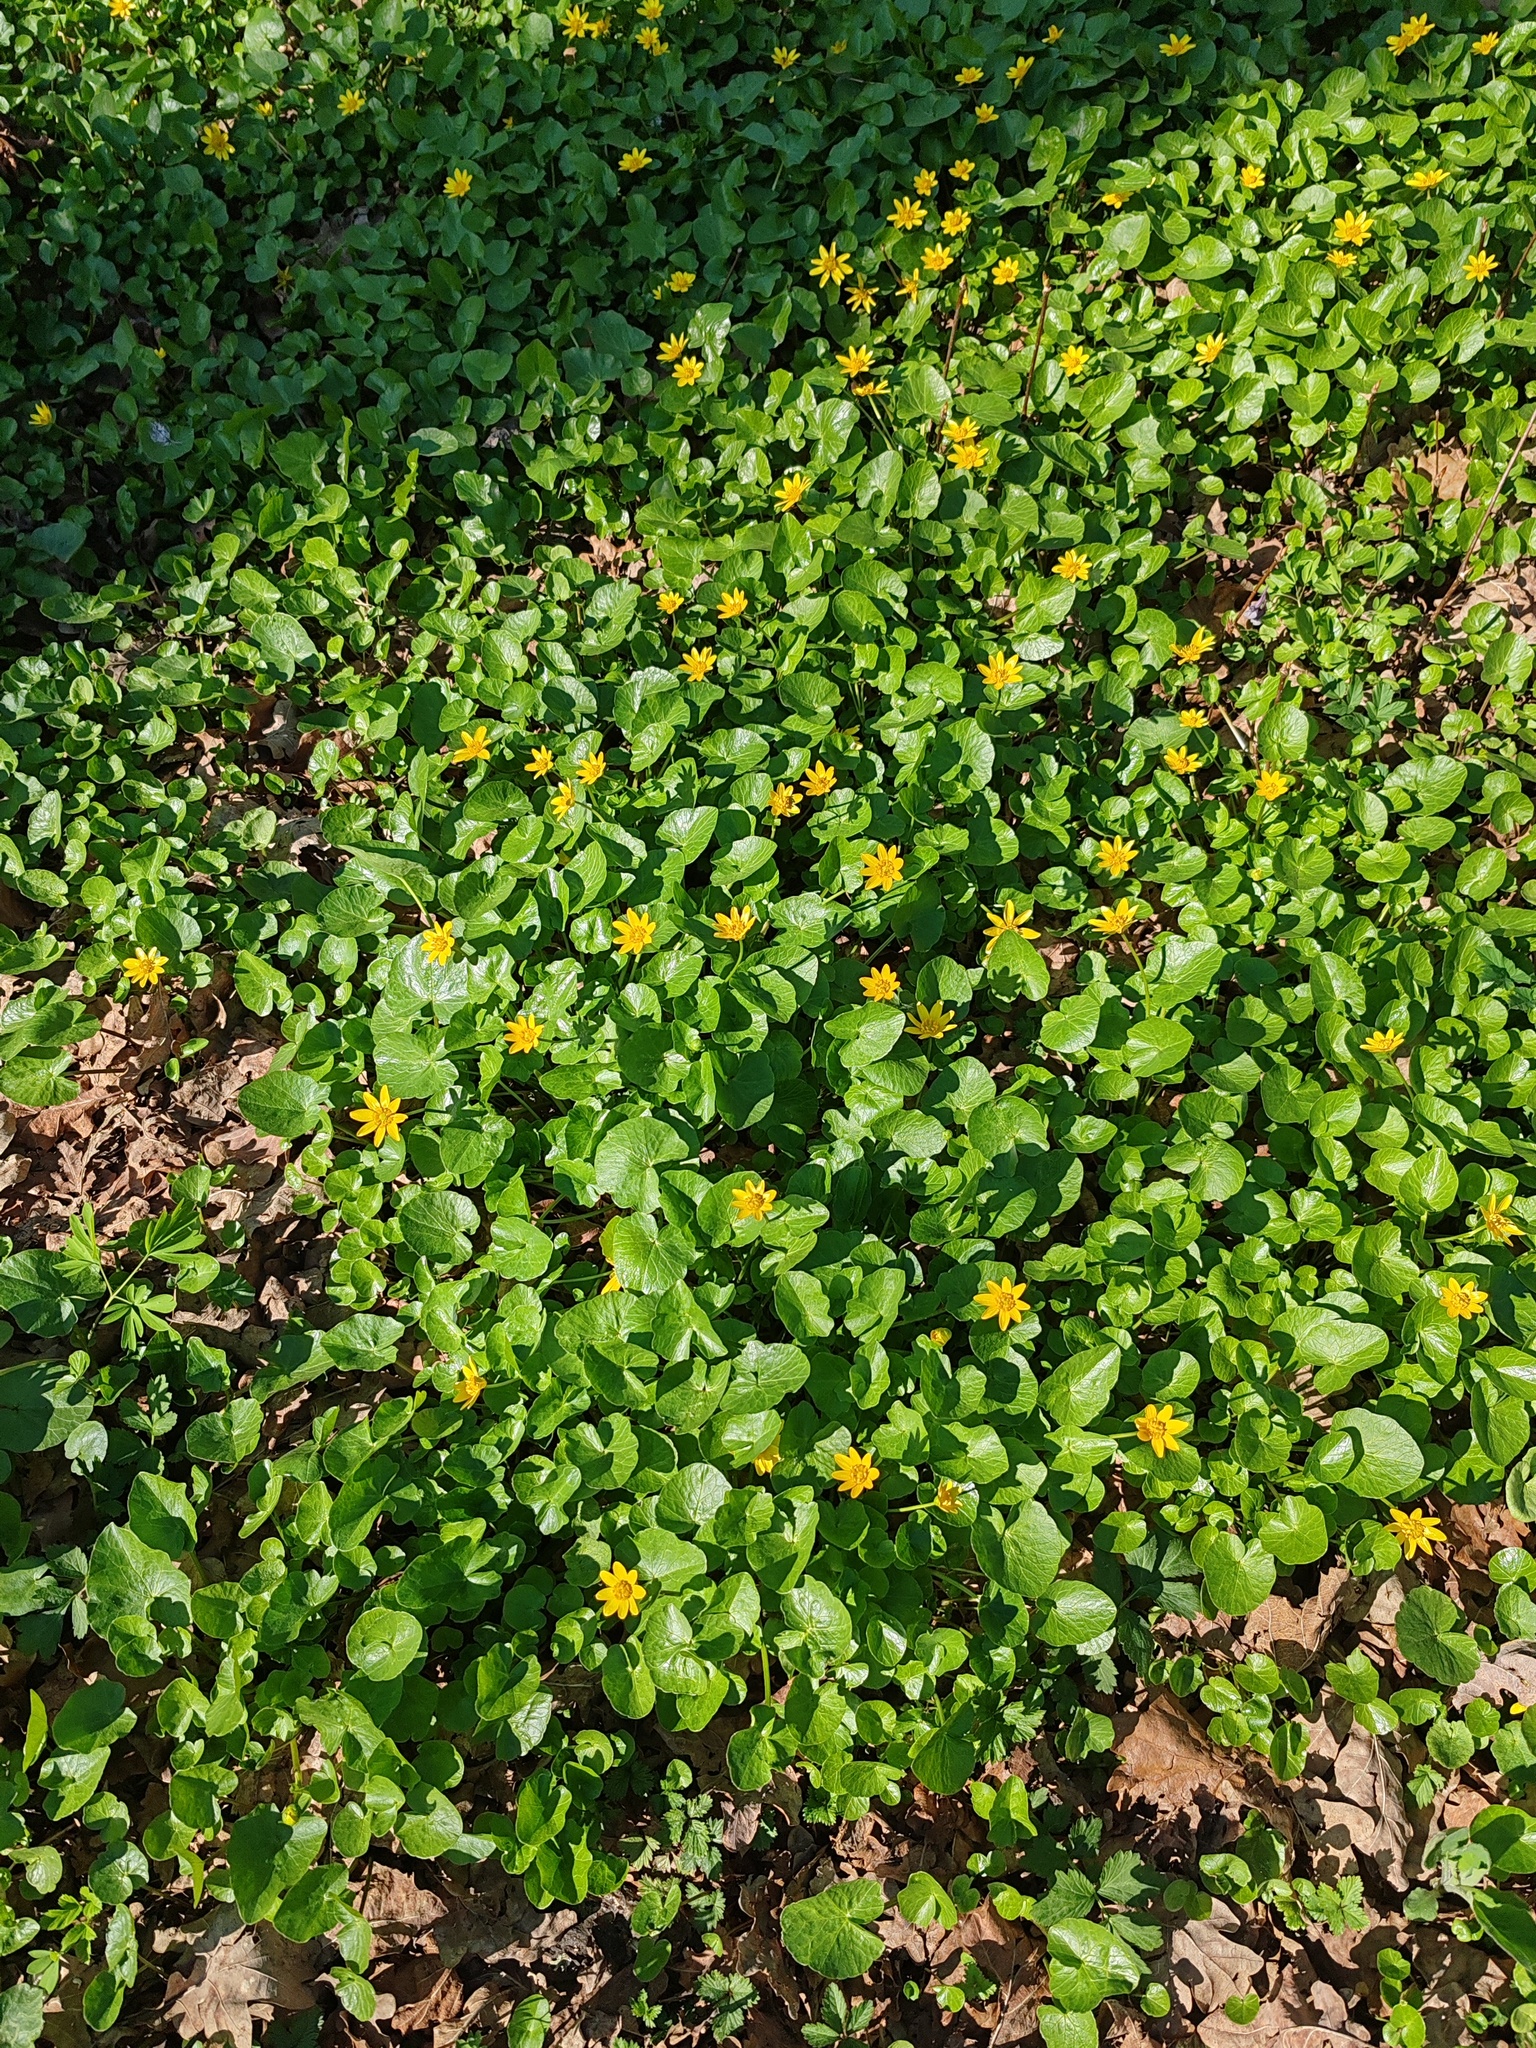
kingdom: Plantae
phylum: Tracheophyta
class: Magnoliopsida
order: Ranunculales
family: Ranunculaceae
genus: Ficaria
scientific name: Ficaria verna
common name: Lesser celandine
